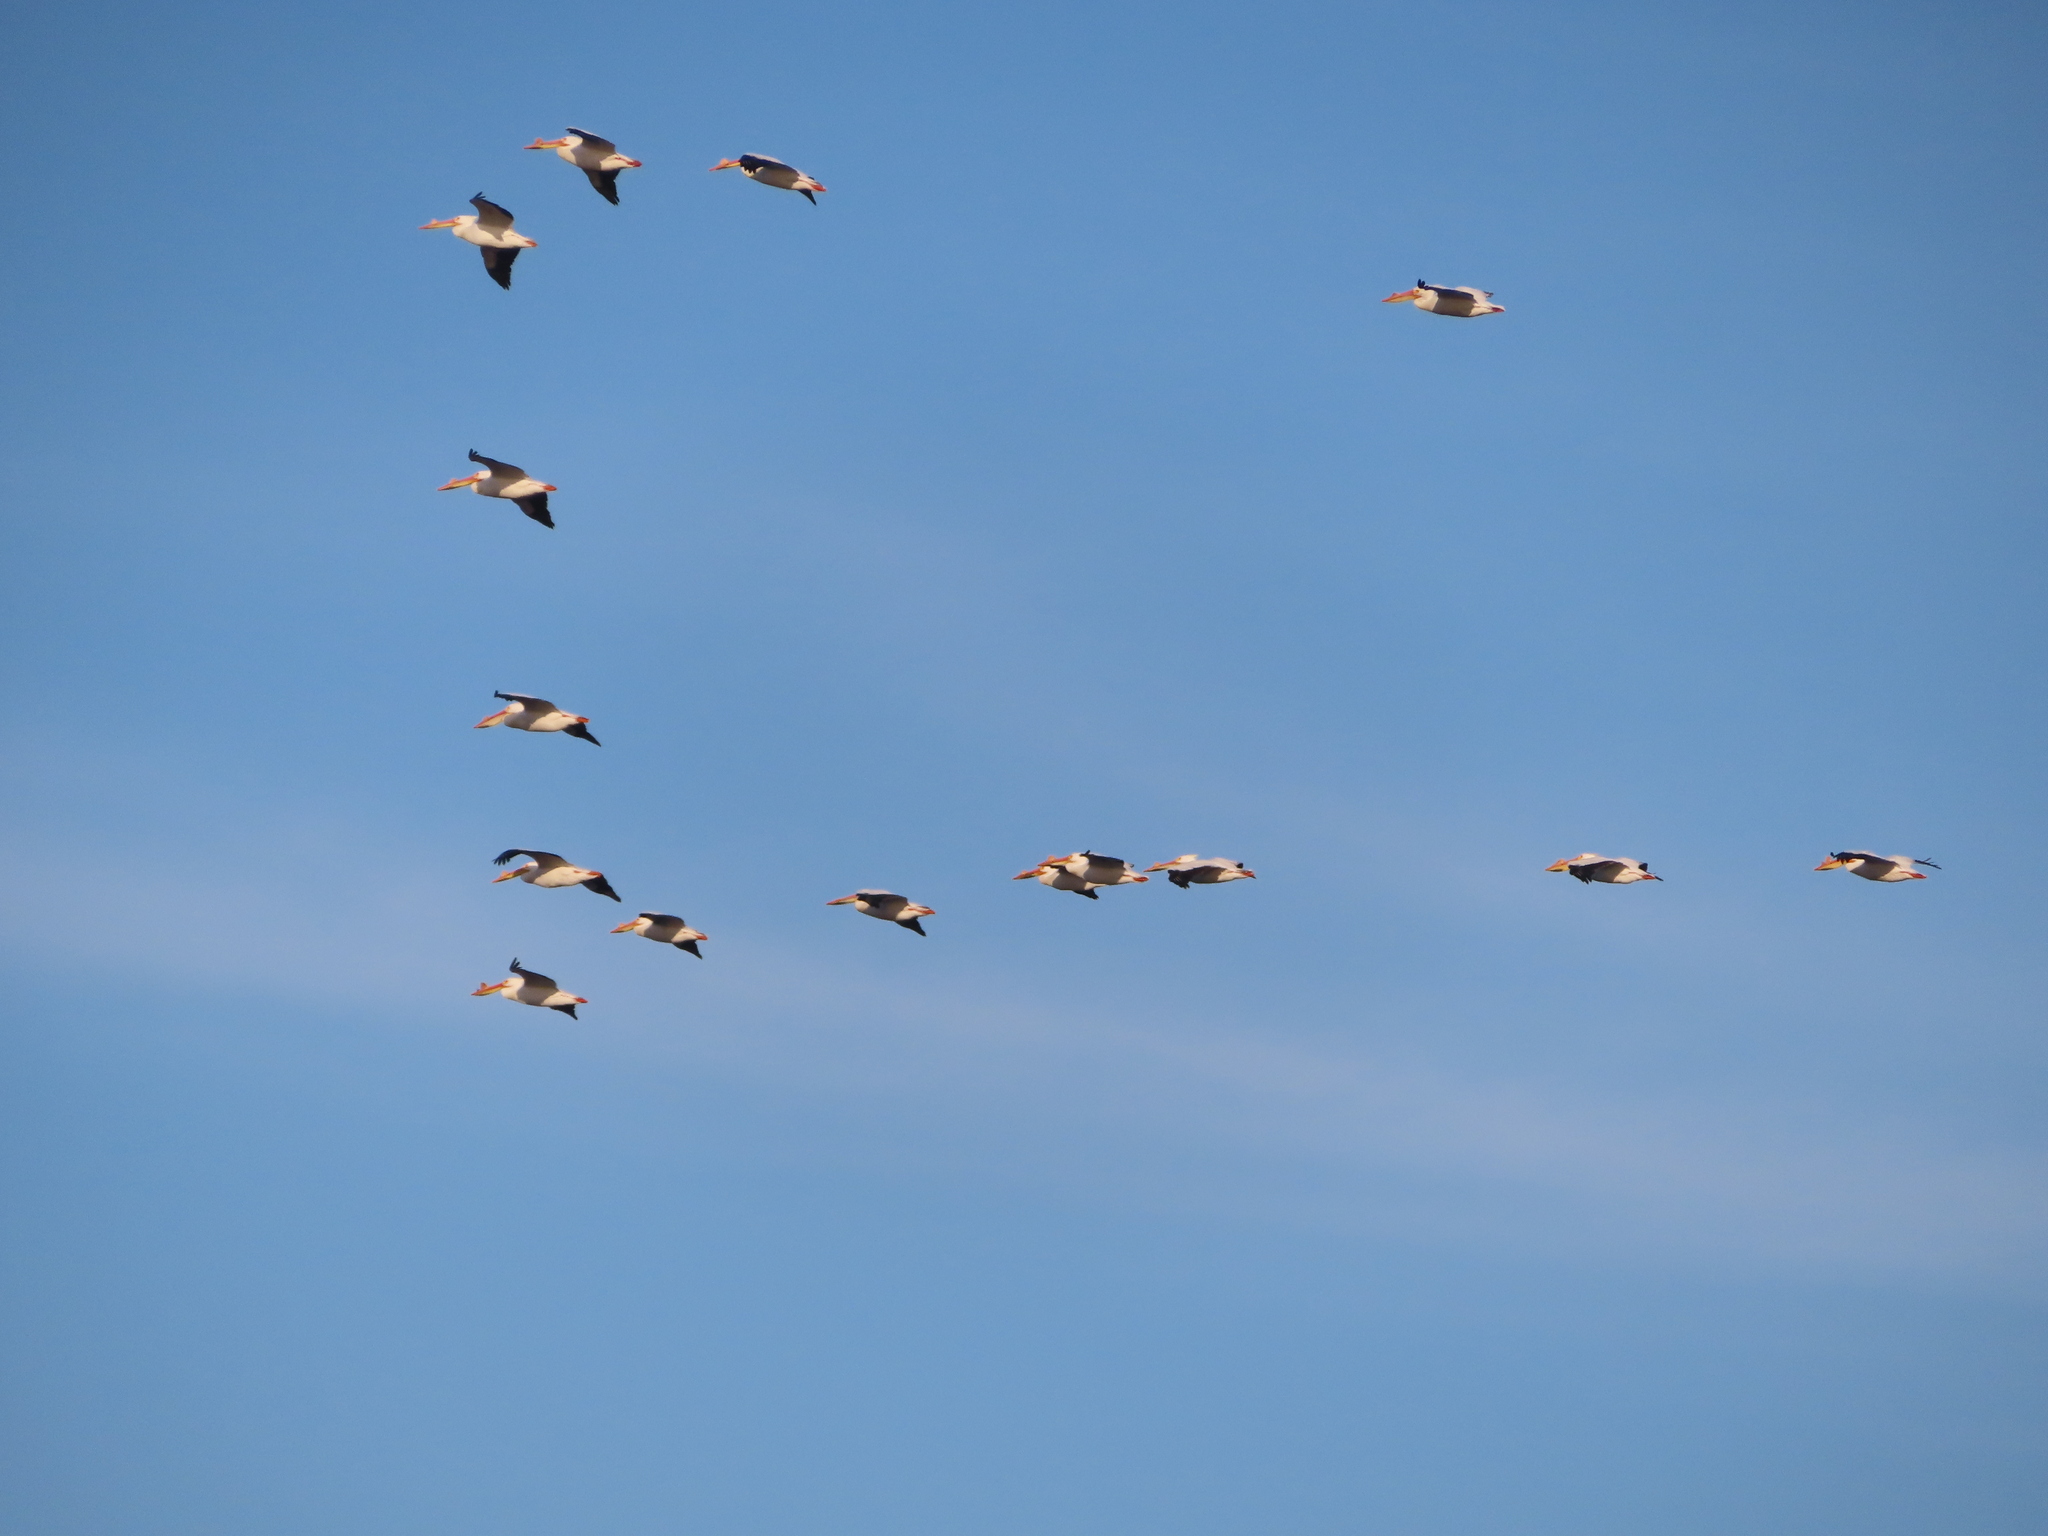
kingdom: Animalia
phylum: Chordata
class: Aves
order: Pelecaniformes
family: Pelecanidae
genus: Pelecanus
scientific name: Pelecanus erythrorhynchos
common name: American white pelican
